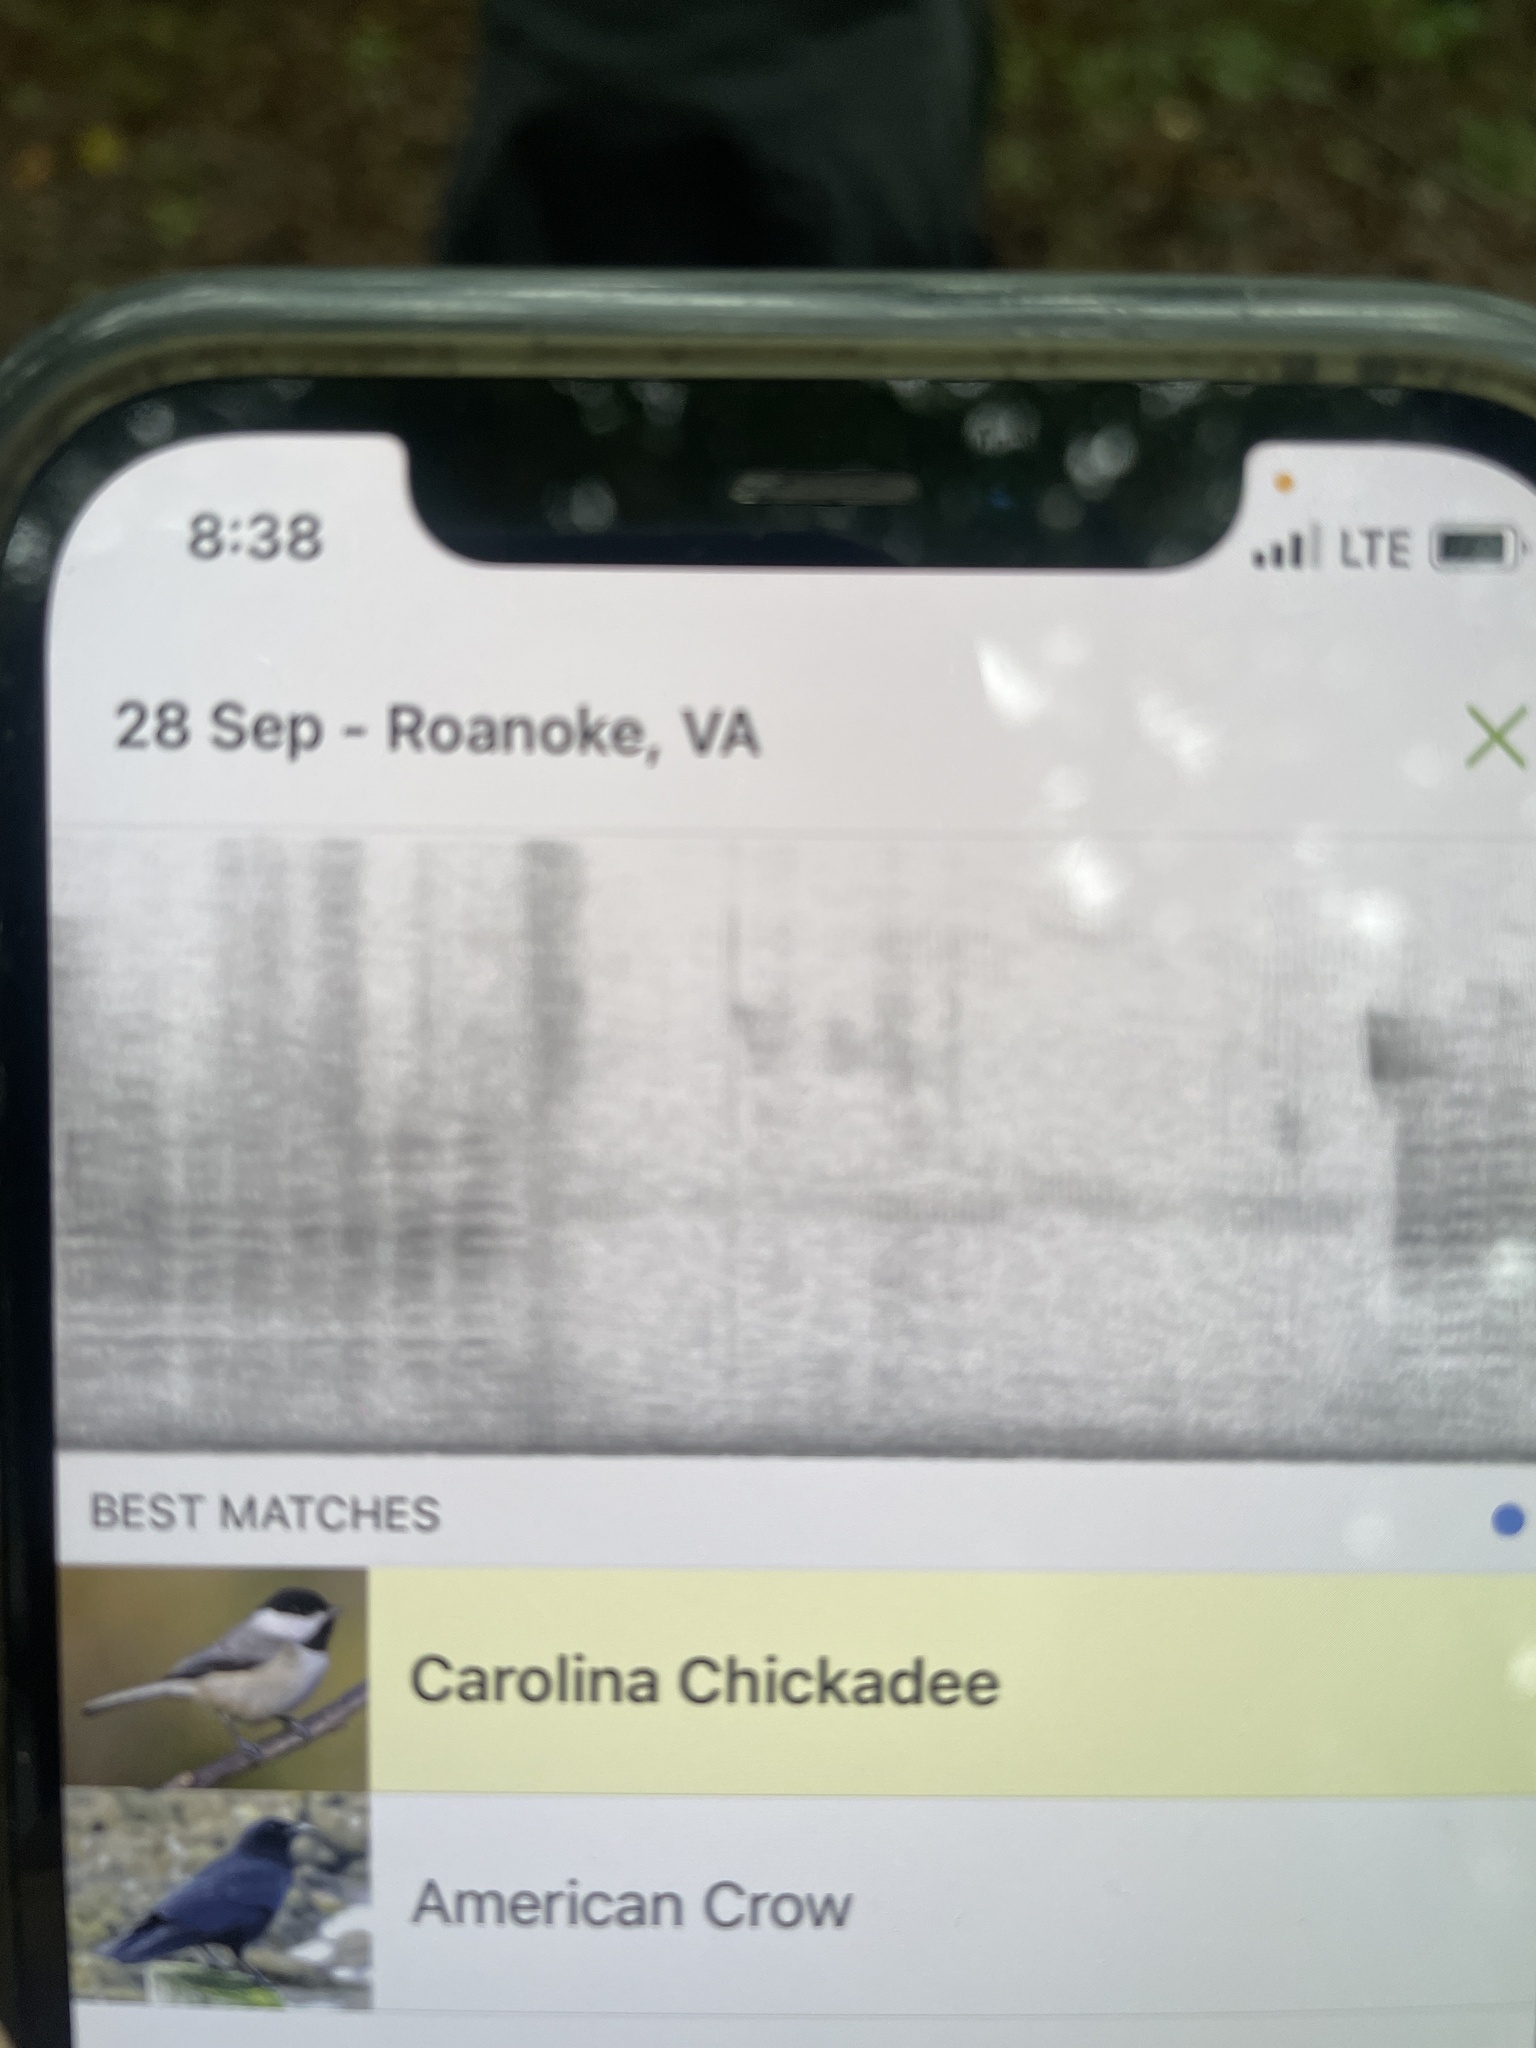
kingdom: Animalia
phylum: Chordata
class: Aves
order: Passeriformes
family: Paridae
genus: Poecile
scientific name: Poecile carolinensis
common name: Carolina chickadee
